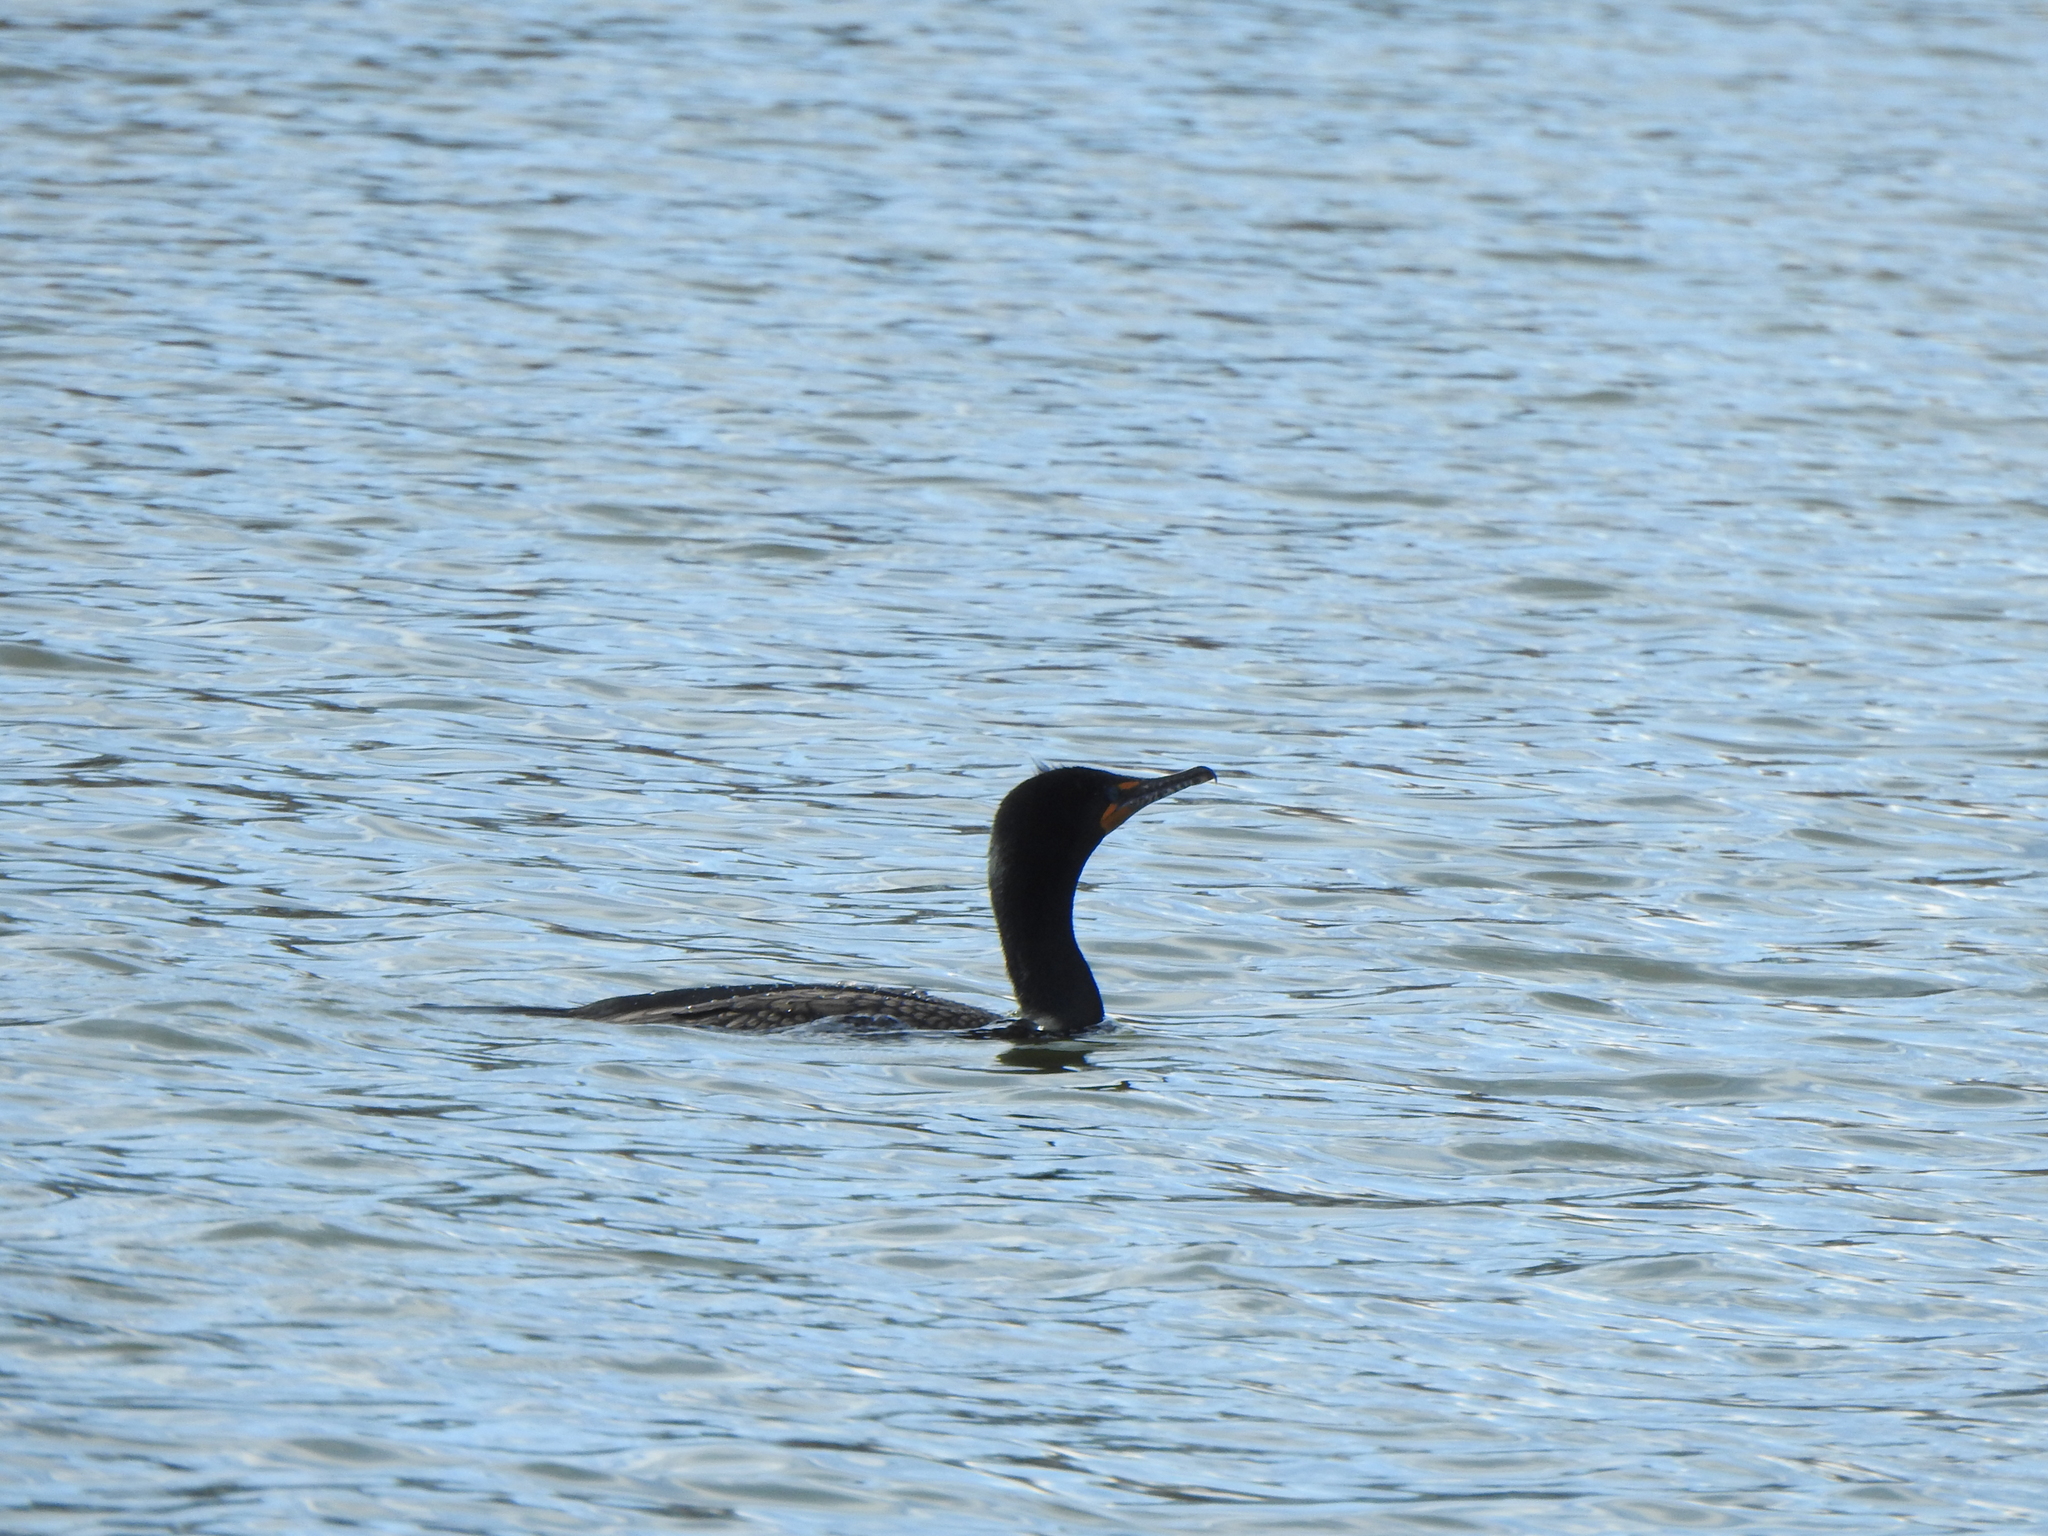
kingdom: Animalia
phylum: Chordata
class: Aves
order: Suliformes
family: Phalacrocoracidae
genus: Phalacrocorax
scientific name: Phalacrocorax auritus
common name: Double-crested cormorant
